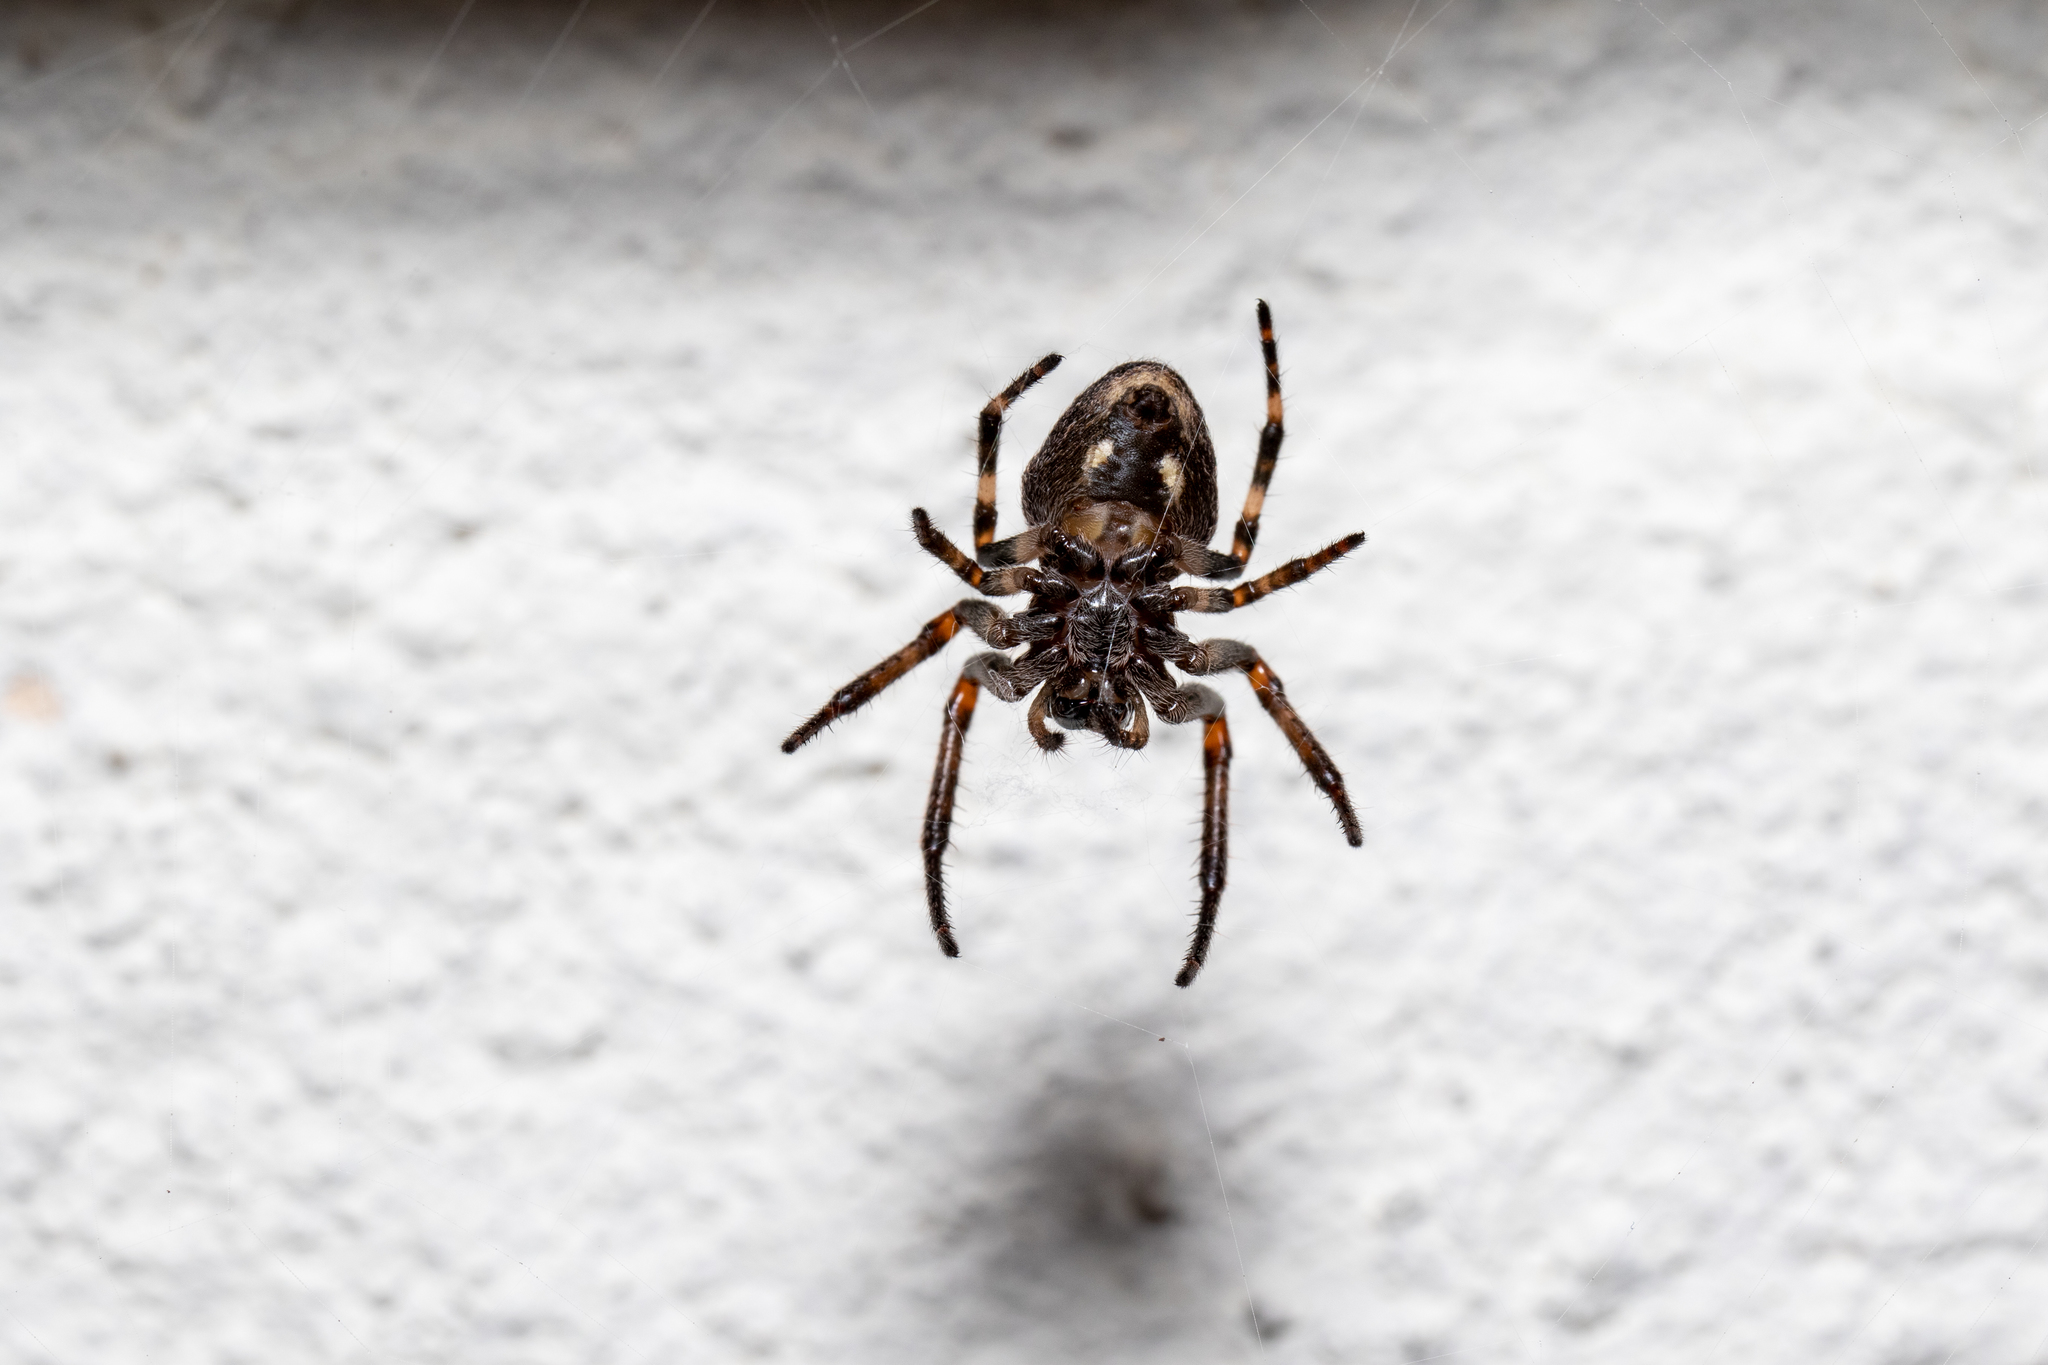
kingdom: Animalia
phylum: Arthropoda
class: Arachnida
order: Araneae
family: Araneidae
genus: Nuctenea
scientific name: Nuctenea umbratica
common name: Toad spider
